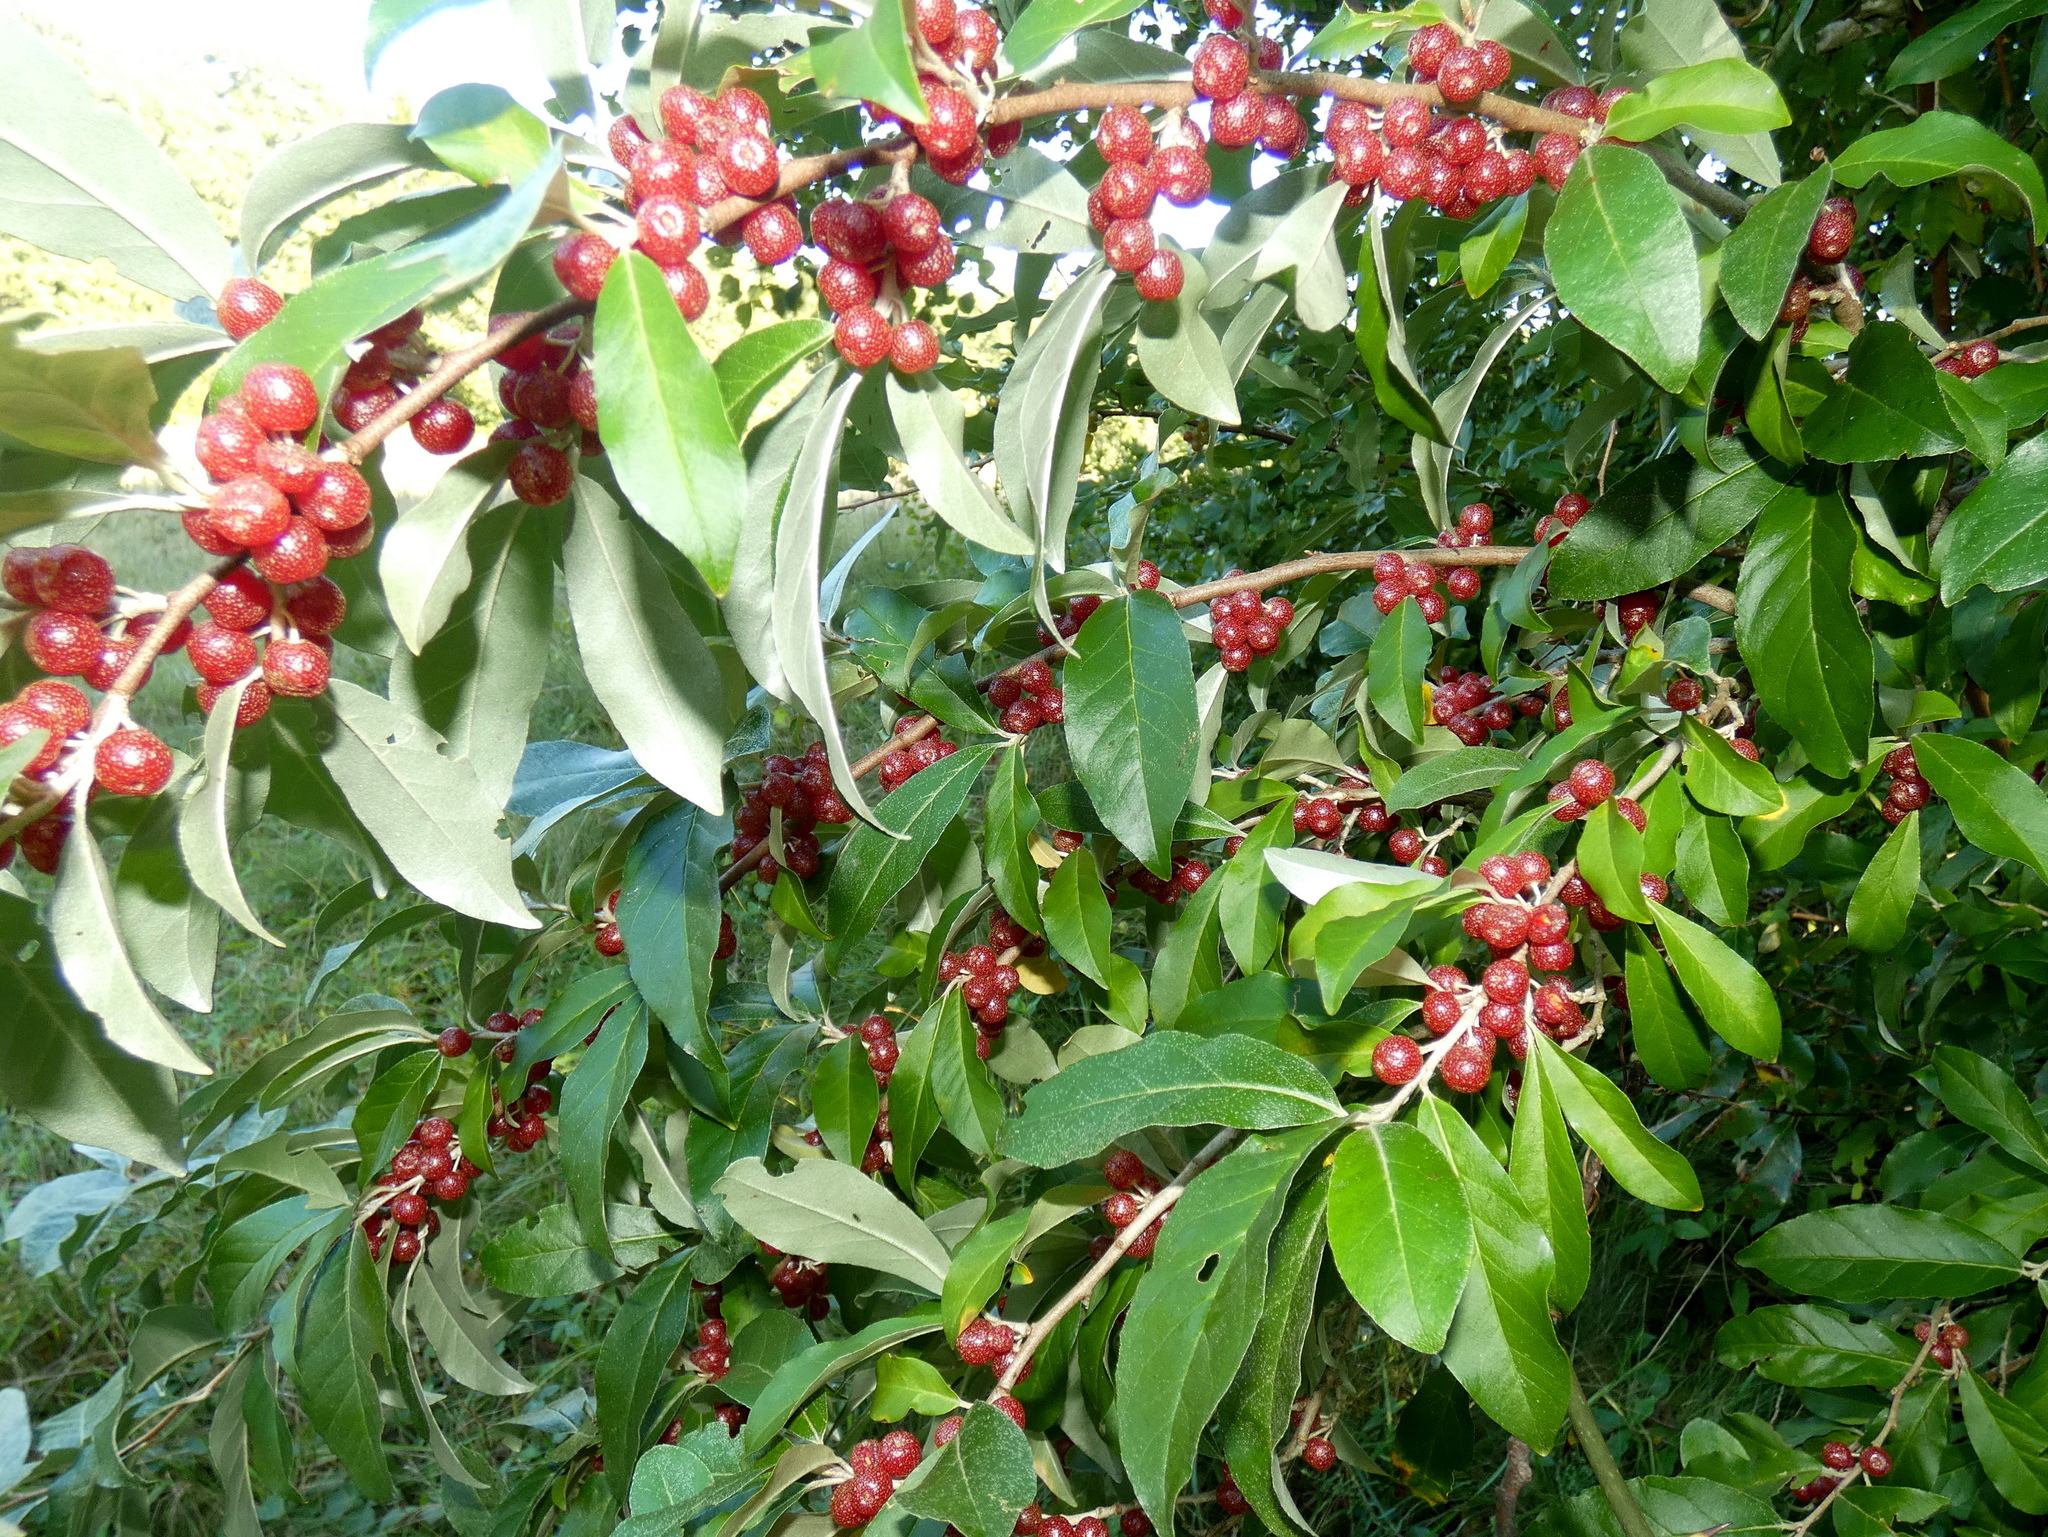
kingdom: Plantae
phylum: Tracheophyta
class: Magnoliopsida
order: Rosales
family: Elaeagnaceae
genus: Elaeagnus
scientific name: Elaeagnus umbellata
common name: Autumn olive
